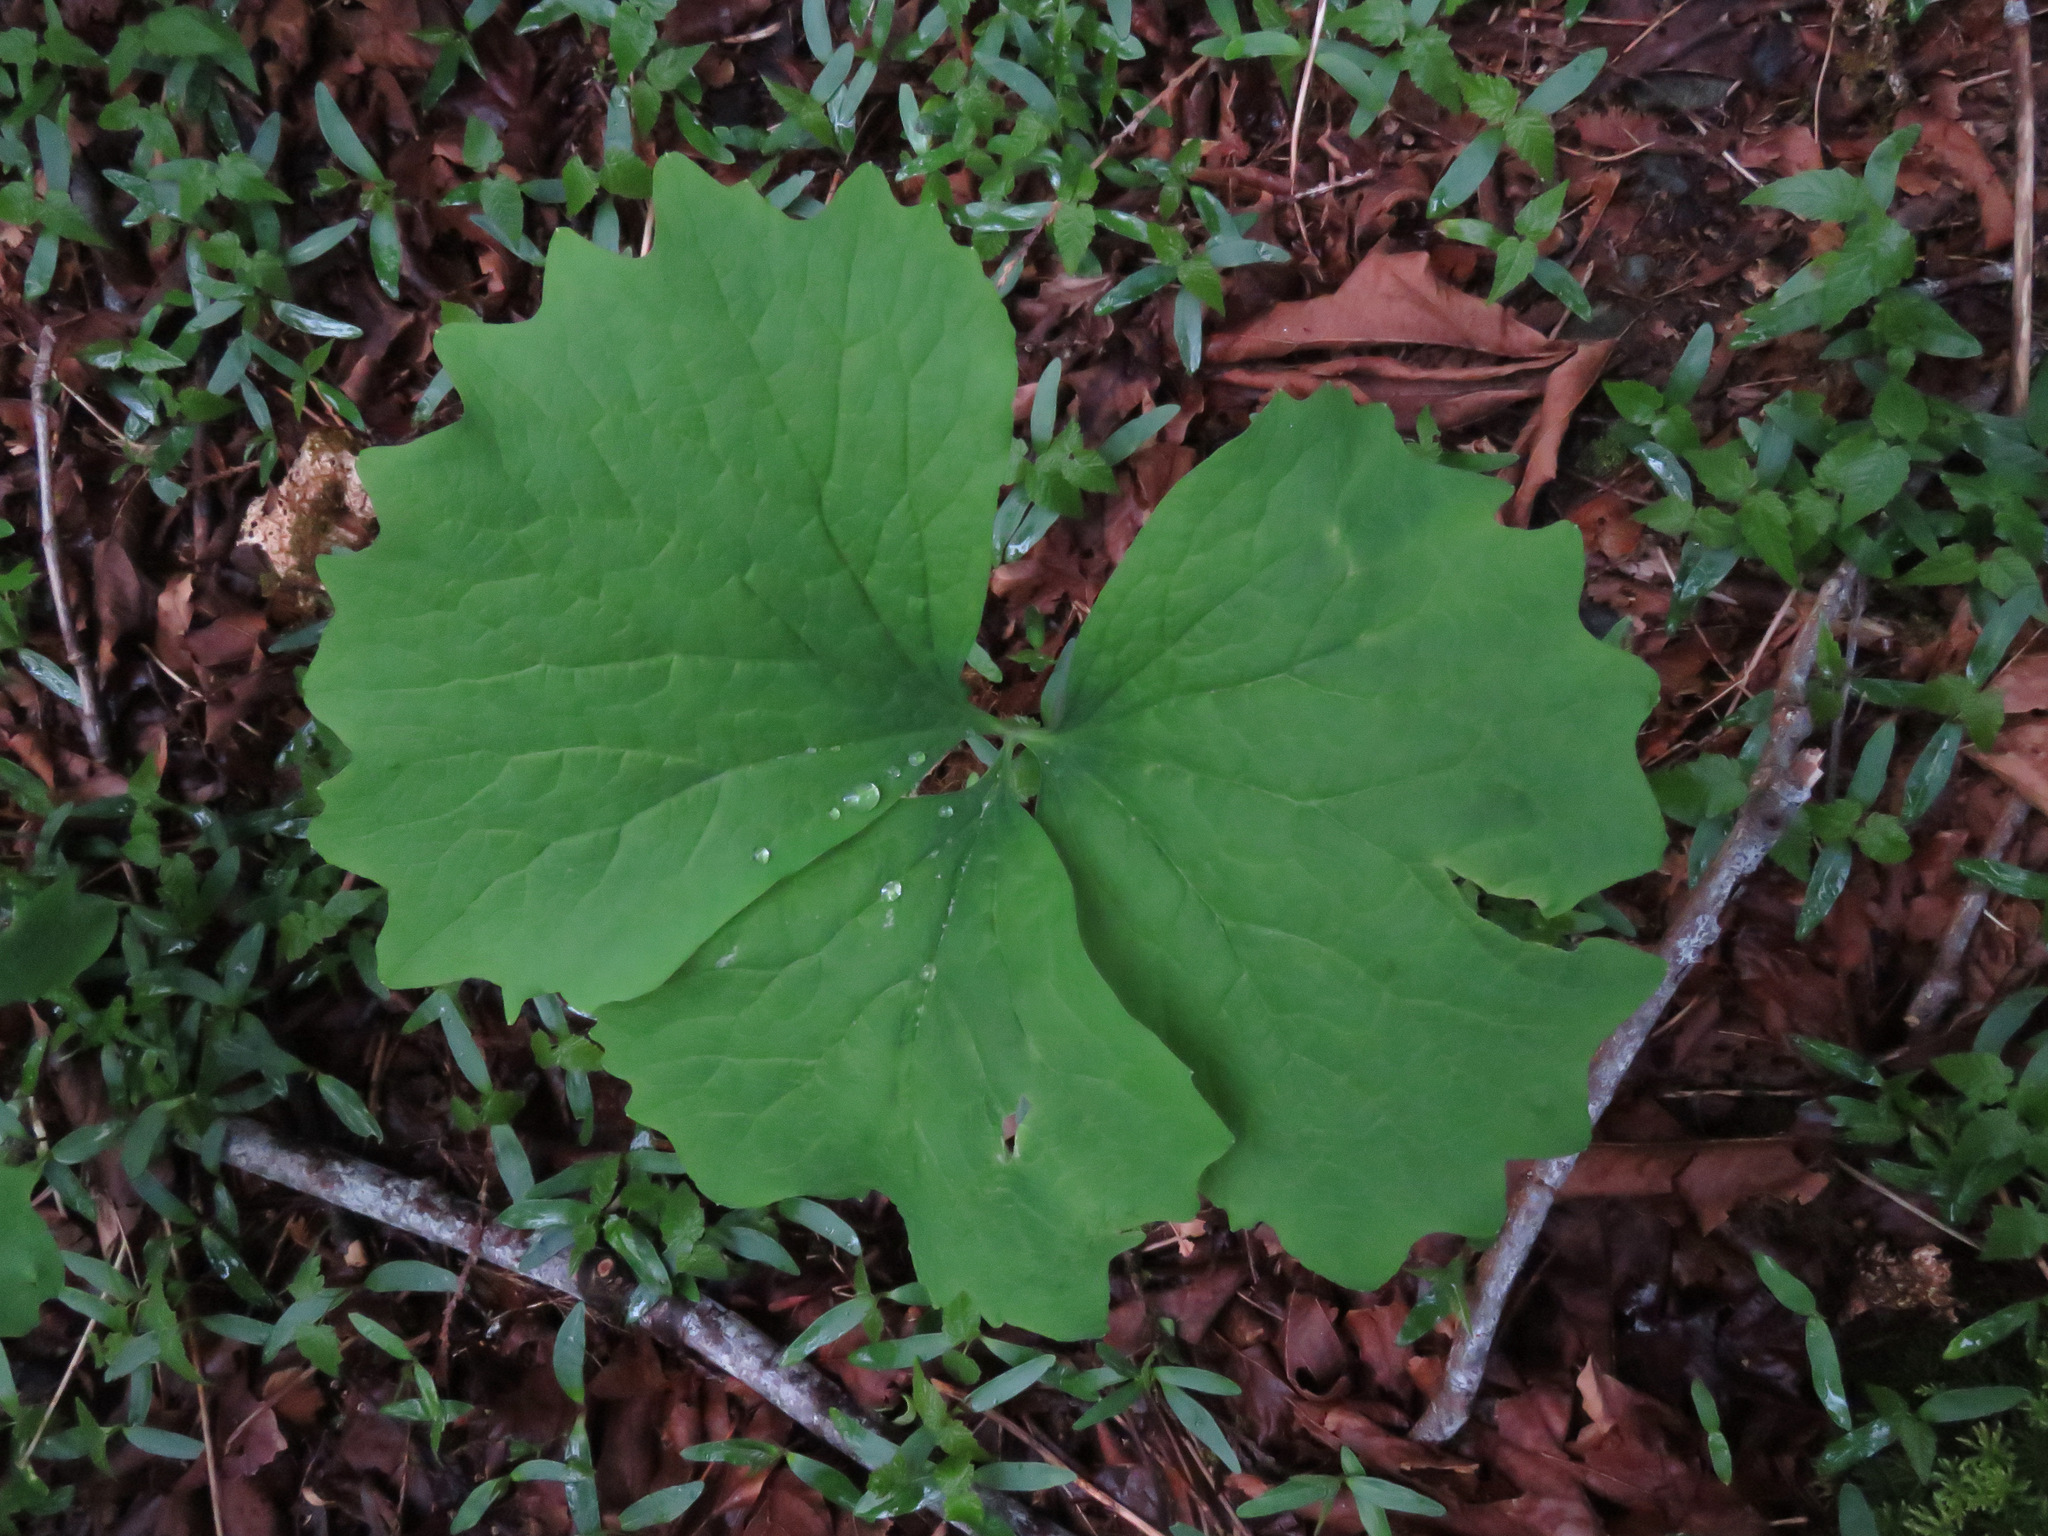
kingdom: Plantae
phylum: Tracheophyta
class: Magnoliopsida
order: Ranunculales
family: Berberidaceae
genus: Achlys
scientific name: Achlys triphylla
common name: Vanilla-leaf
